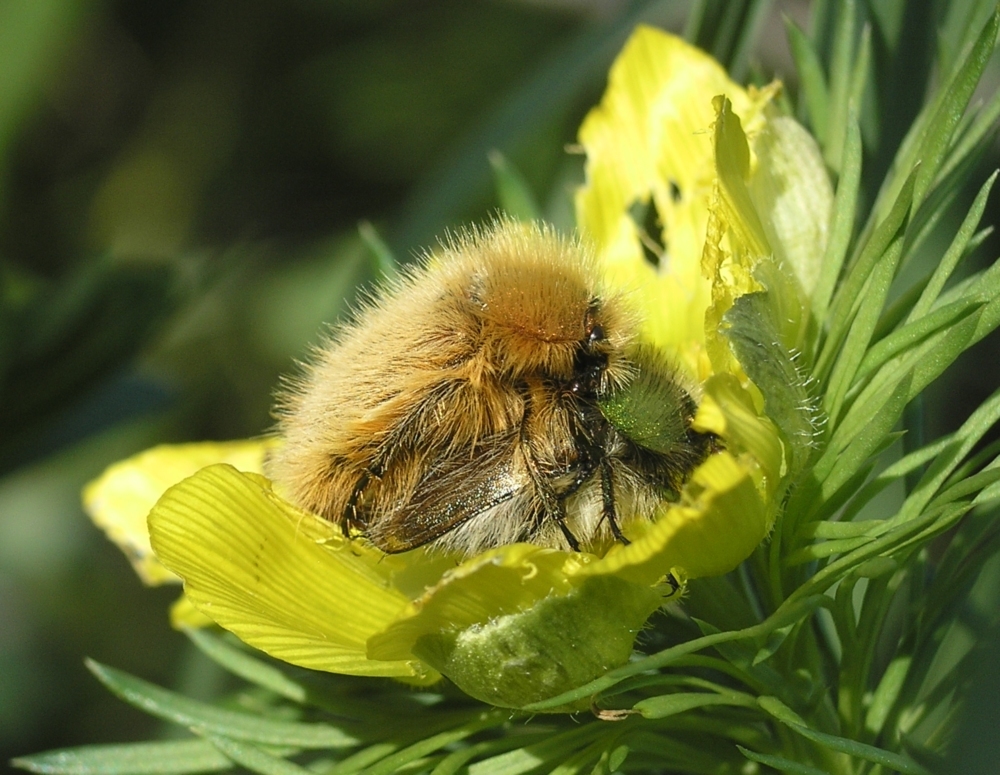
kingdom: Animalia
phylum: Arthropoda
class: Insecta
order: Coleoptera
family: Glaphyridae
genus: Pygopleurus
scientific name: Pygopleurus vulpes
